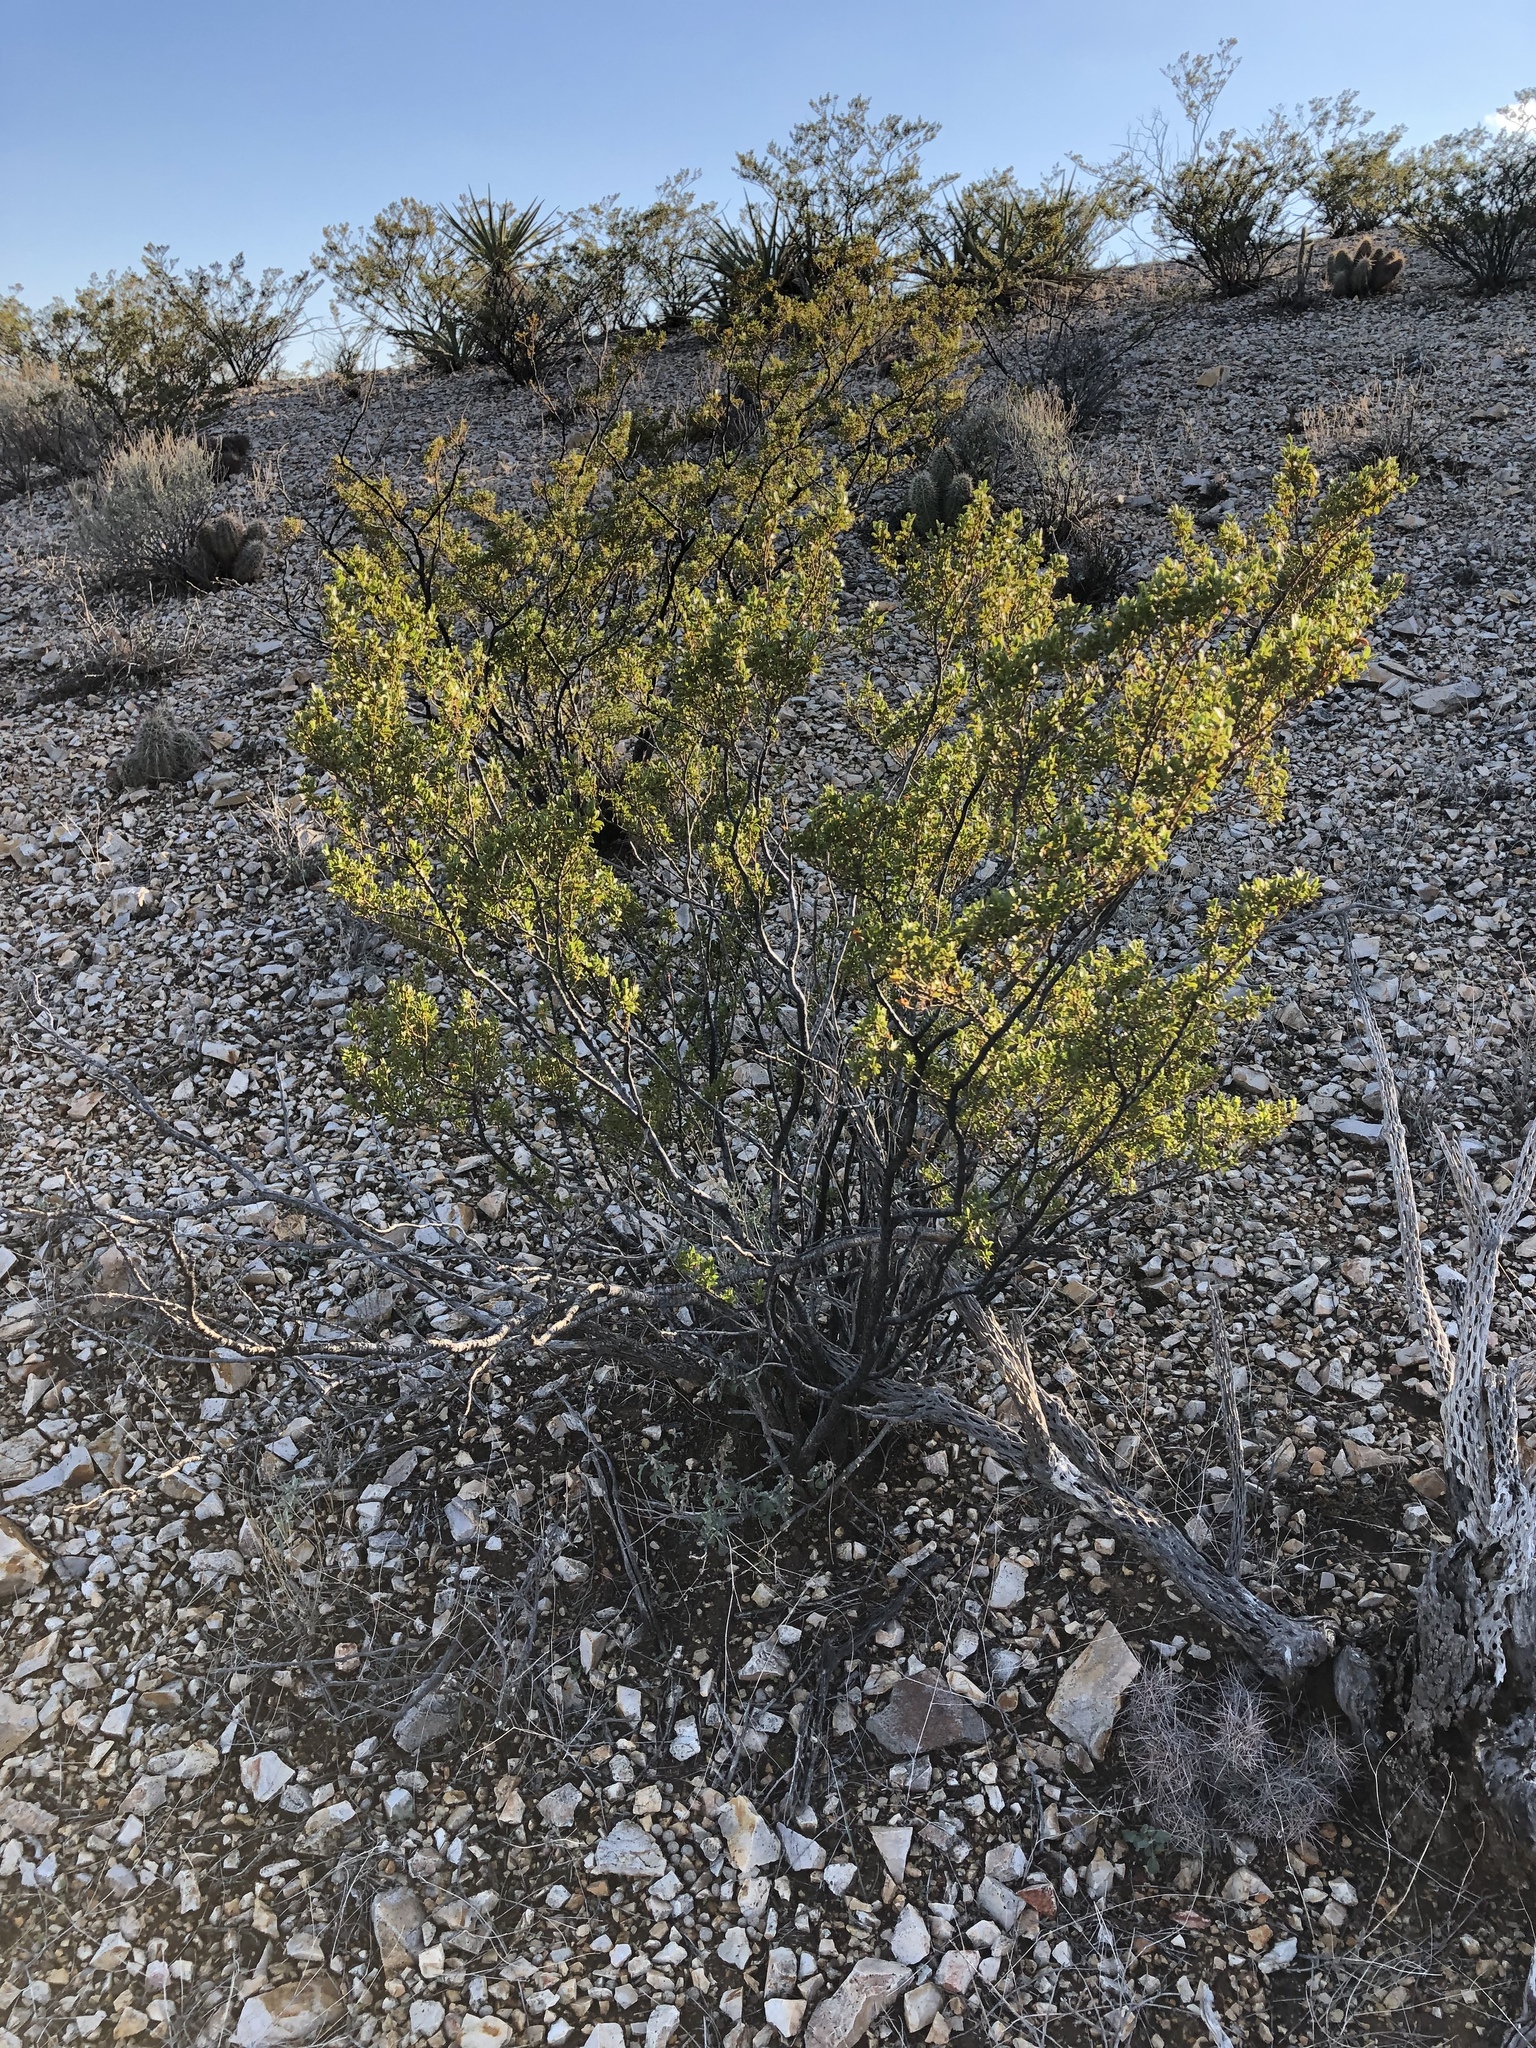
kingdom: Plantae
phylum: Tracheophyta
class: Magnoliopsida
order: Zygophyllales
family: Zygophyllaceae
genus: Larrea
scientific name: Larrea tridentata
